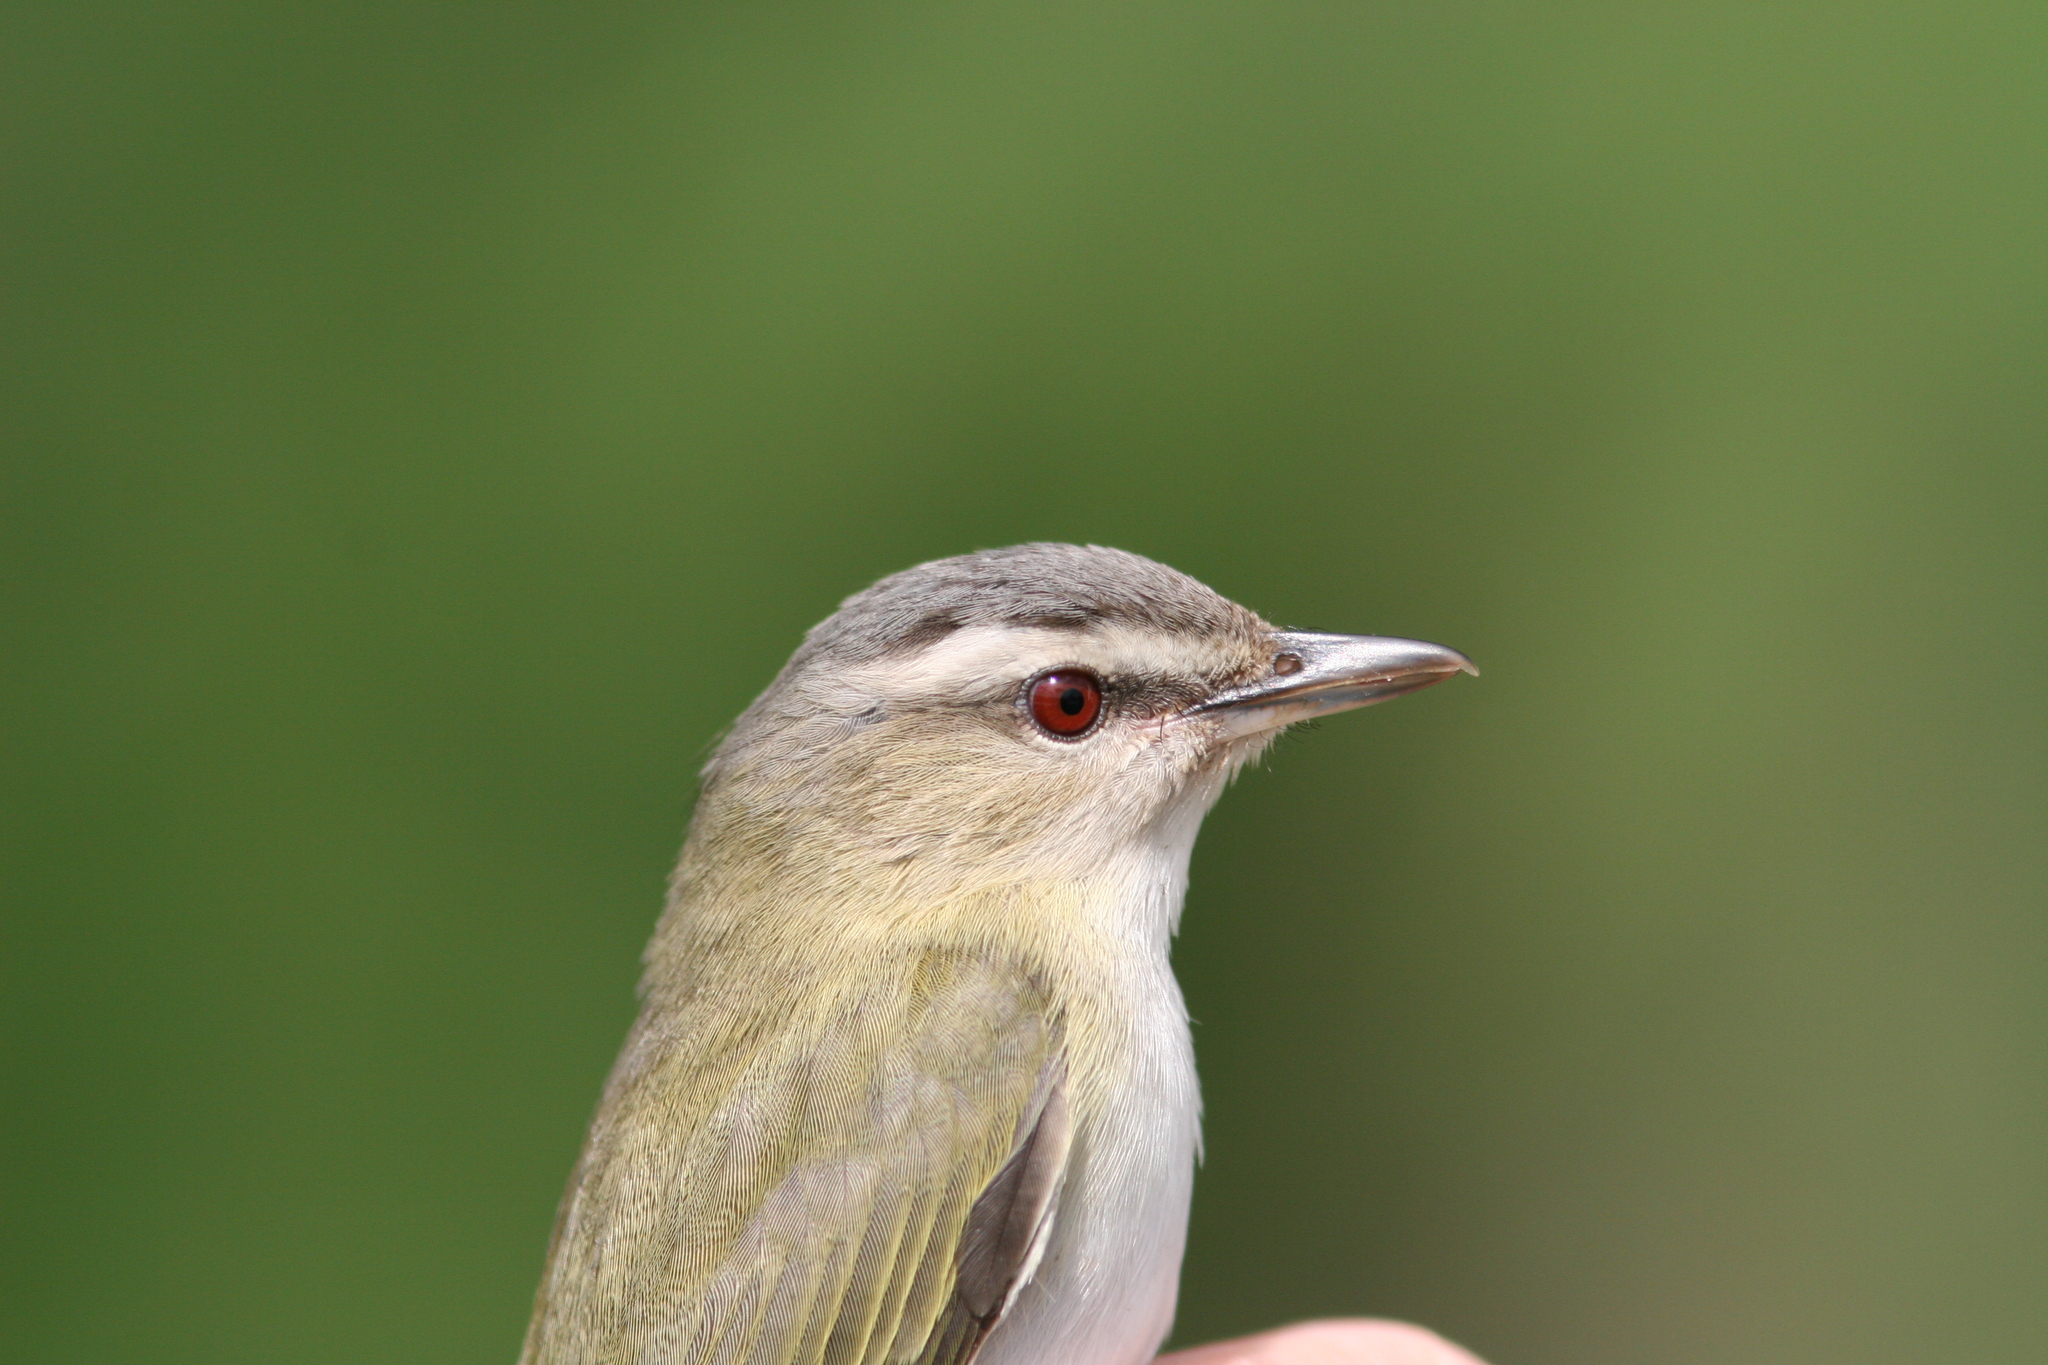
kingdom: Animalia
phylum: Chordata
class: Aves
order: Passeriformes
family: Vireonidae
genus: Vireo
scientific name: Vireo olivaceus
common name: Red-eyed vireo
